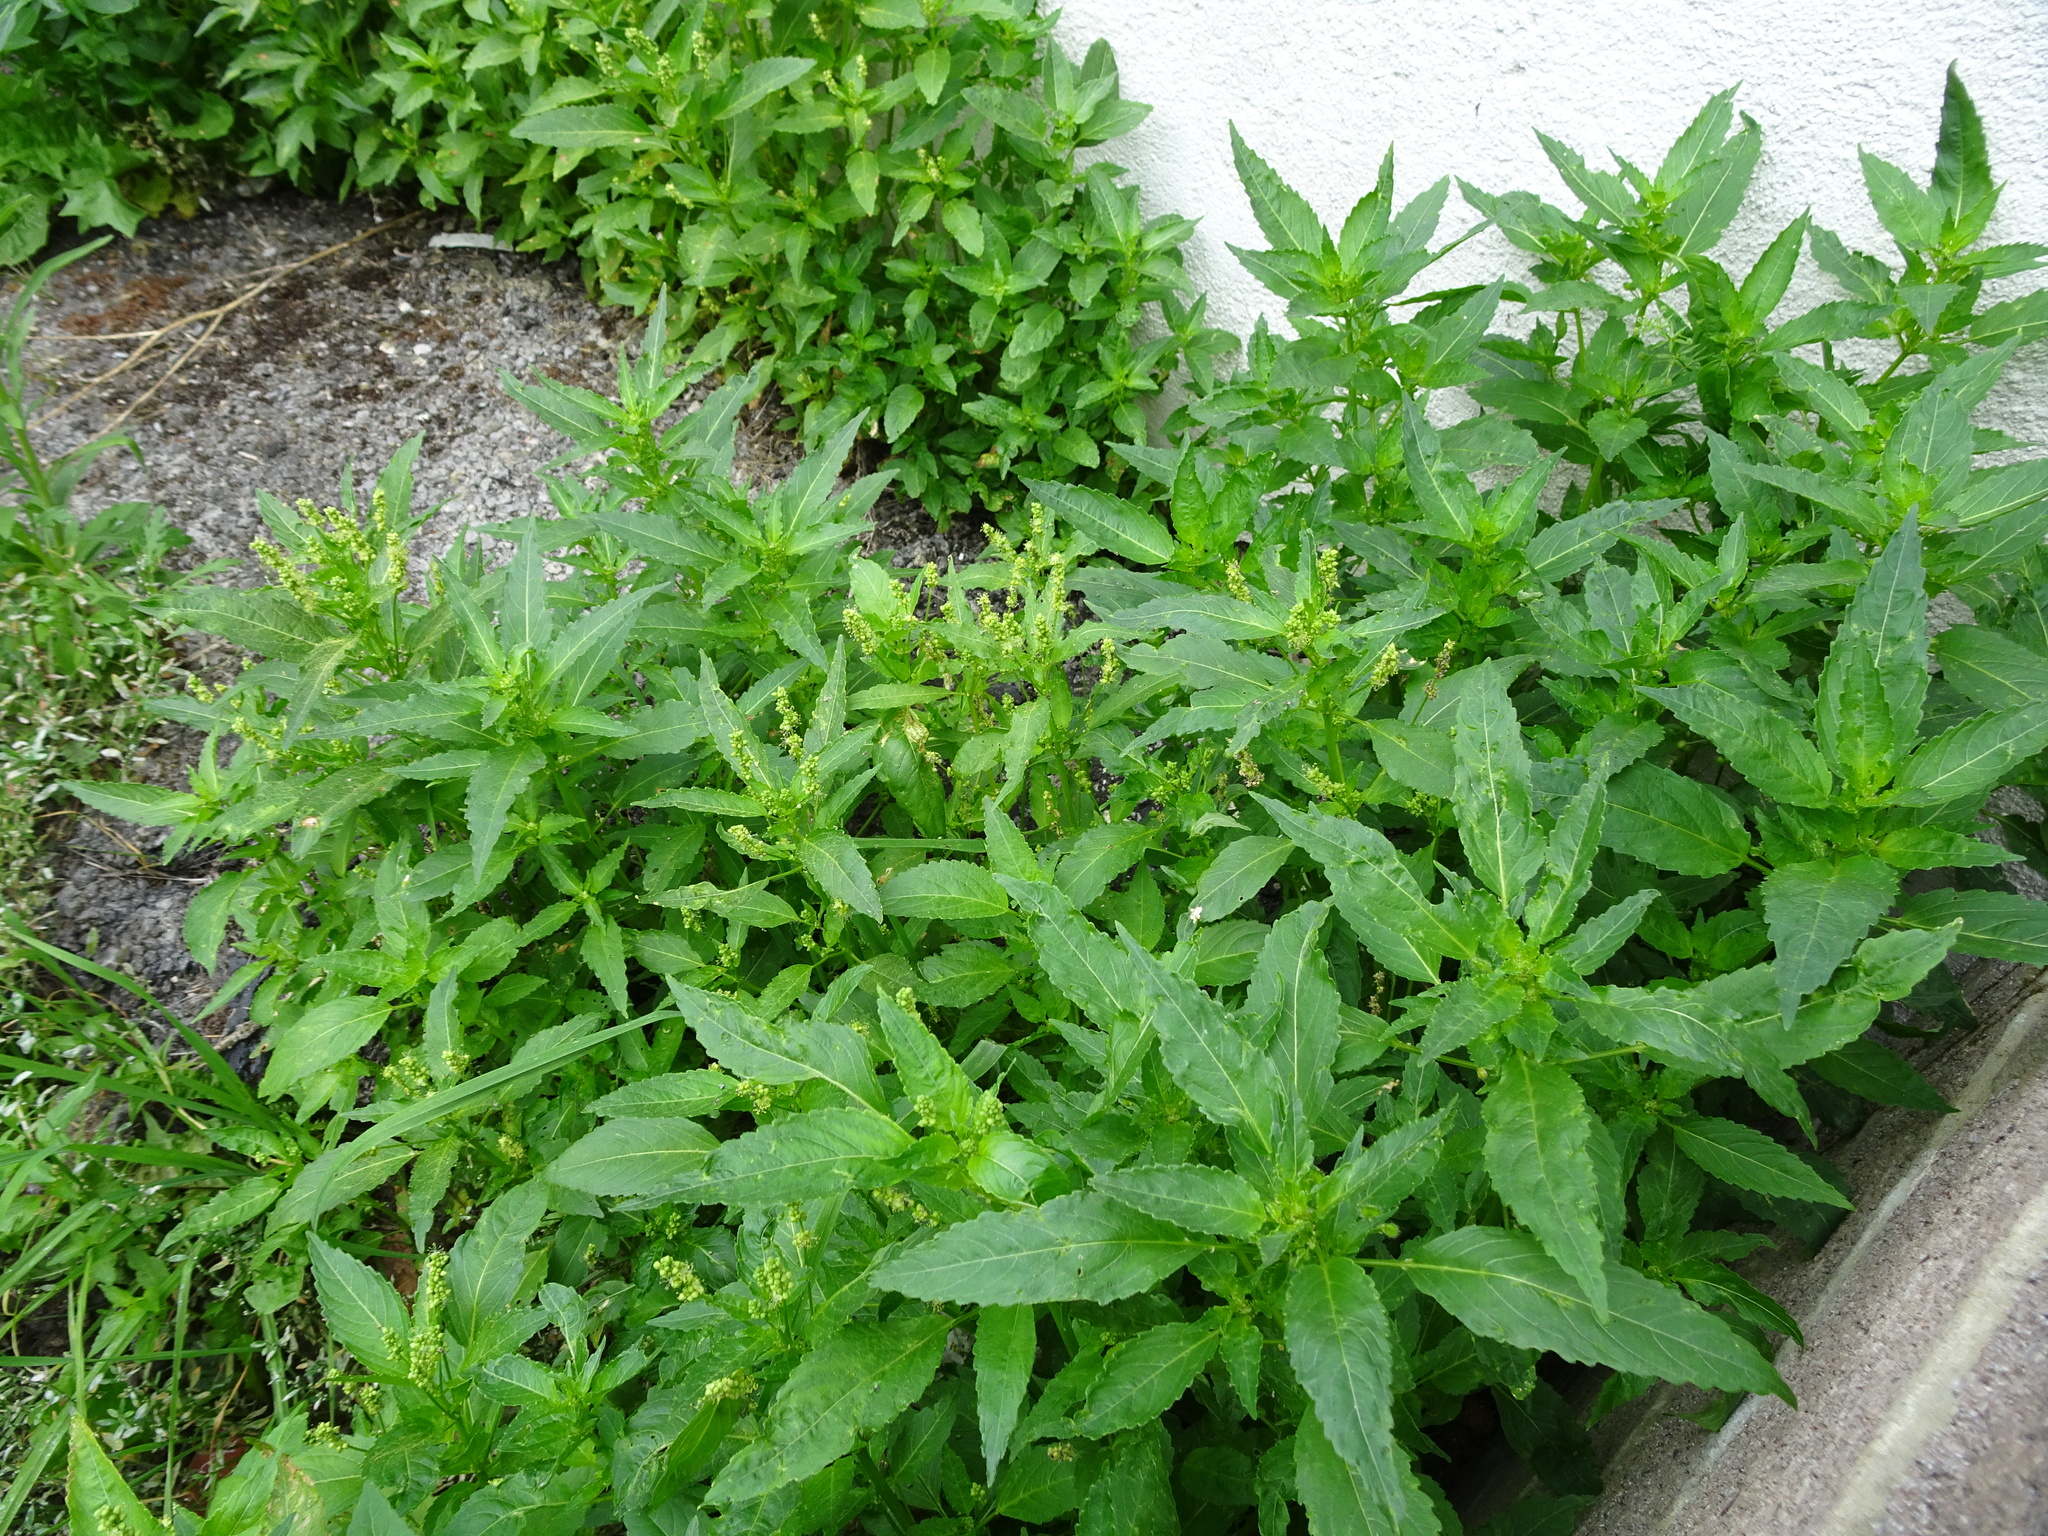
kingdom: Plantae
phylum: Tracheophyta
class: Magnoliopsida
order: Malpighiales
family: Euphorbiaceae
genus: Mercurialis
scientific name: Mercurialis annua
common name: Annual mercury
